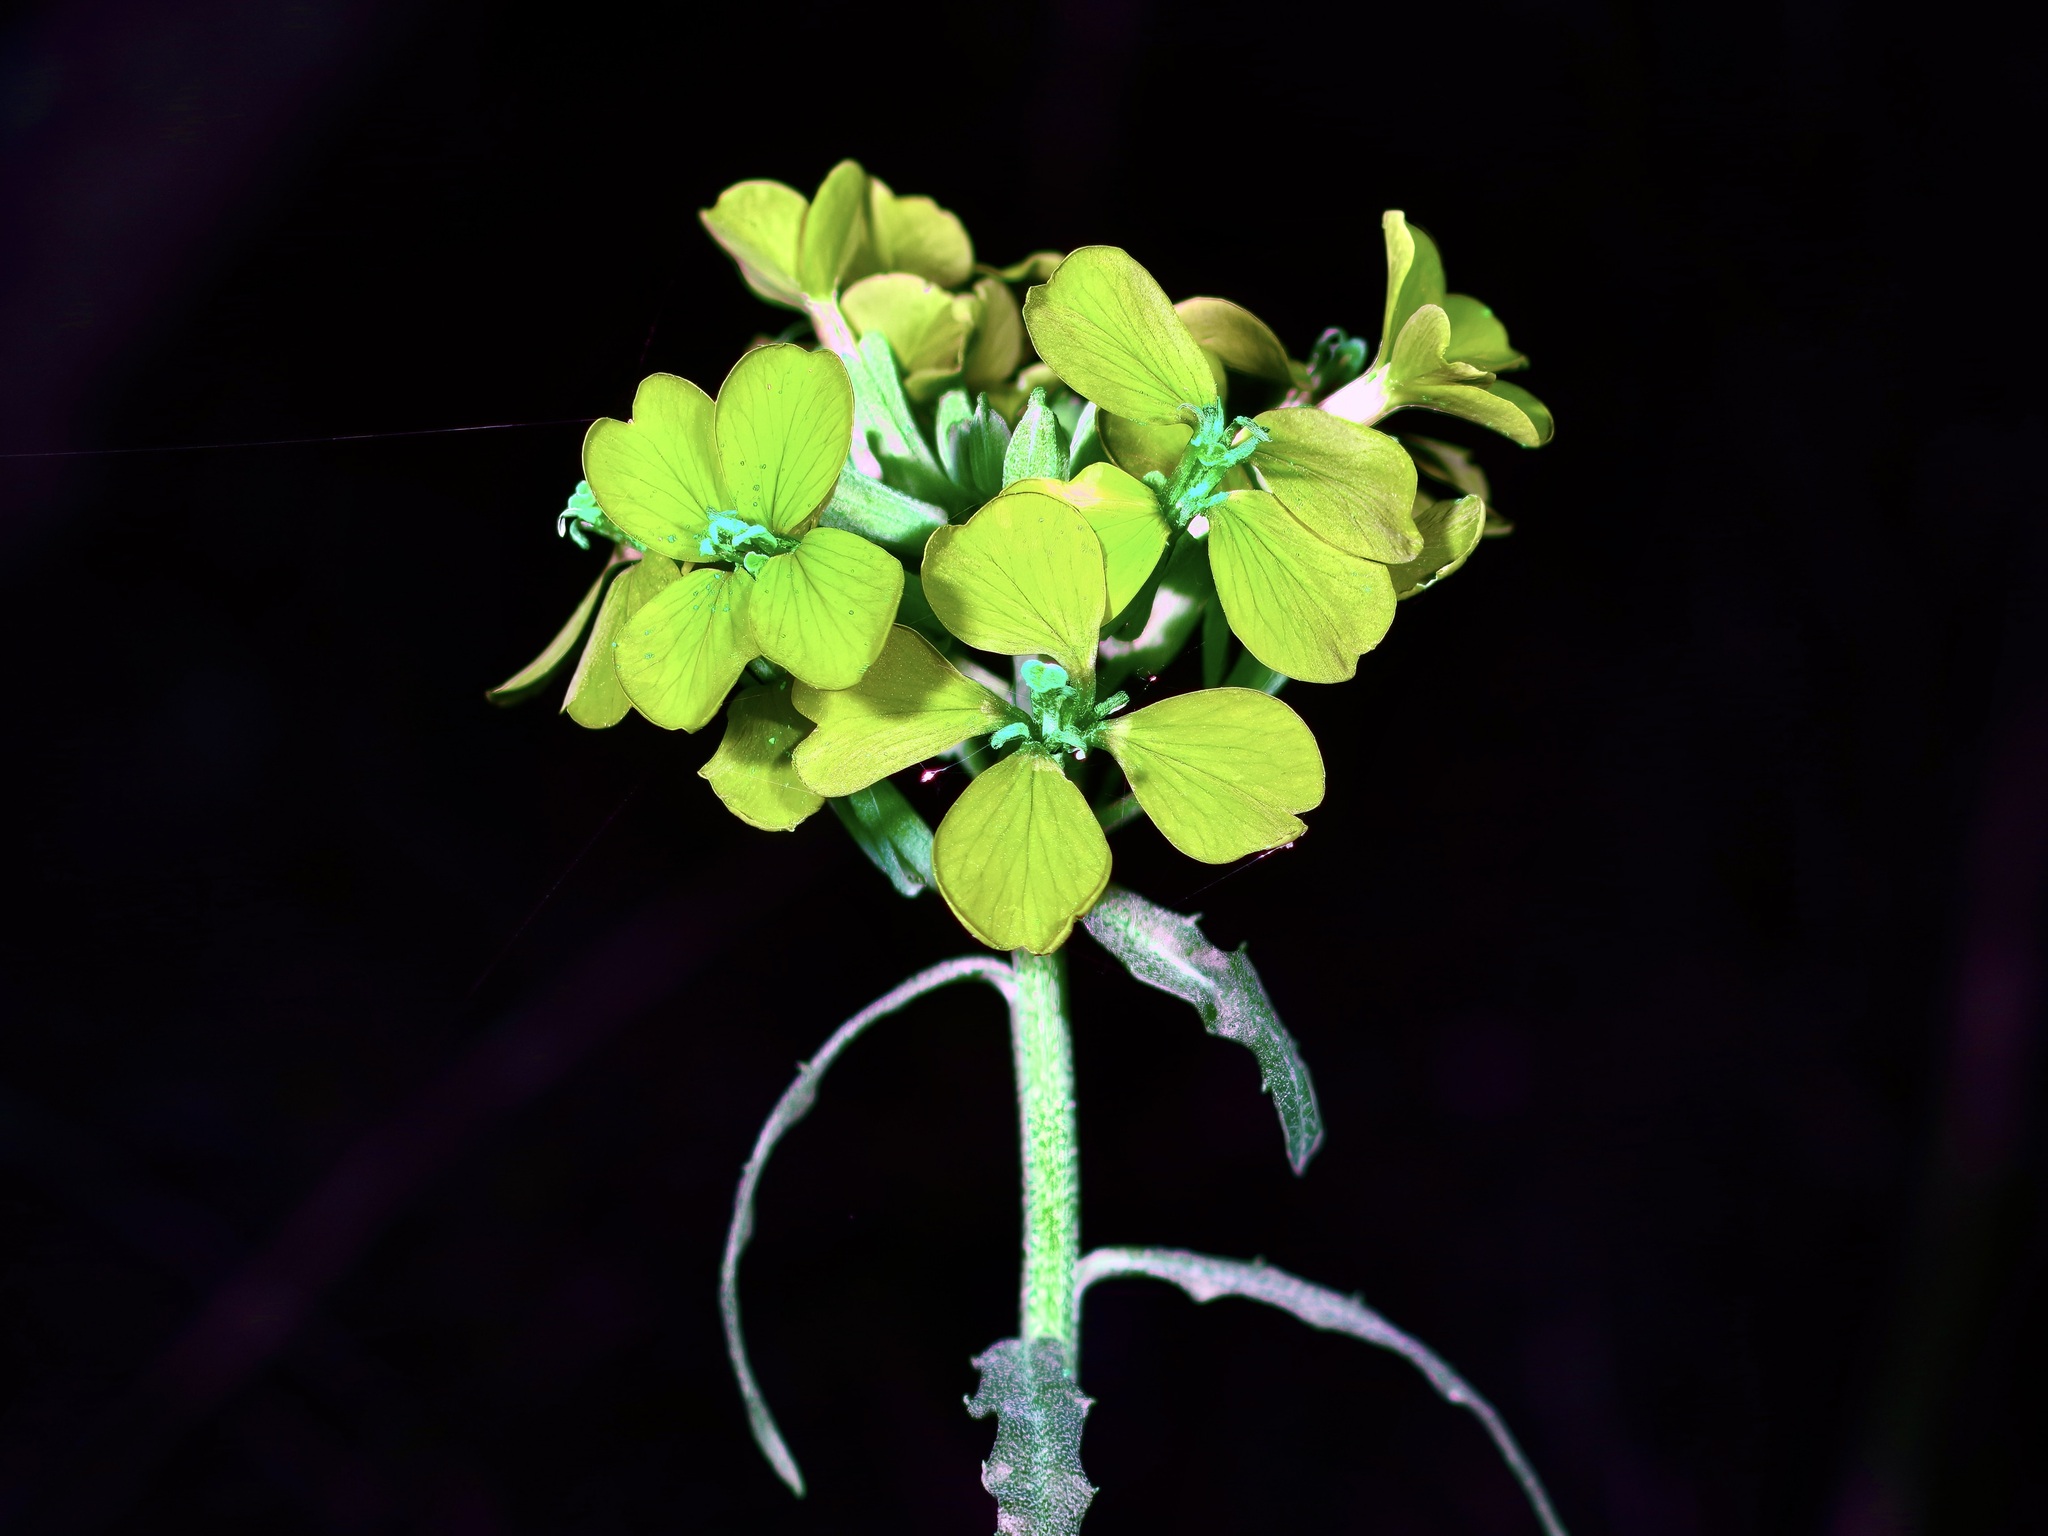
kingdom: Plantae
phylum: Tracheophyta
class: Magnoliopsida
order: Brassicales
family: Brassicaceae
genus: Erysimum
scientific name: Erysimum asperum
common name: Western wallflower
